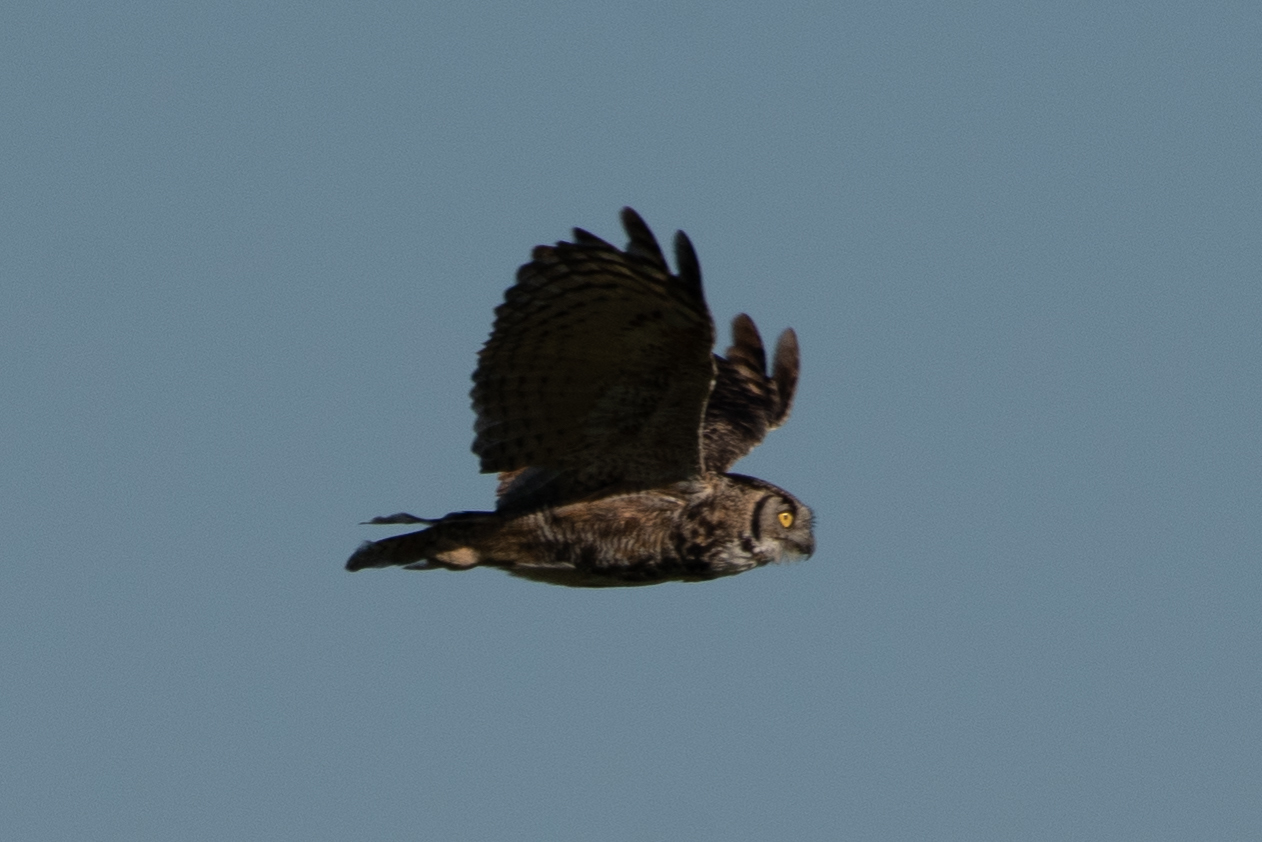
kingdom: Animalia
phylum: Chordata
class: Aves
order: Strigiformes
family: Strigidae
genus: Bubo
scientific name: Bubo virginianus
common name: Great horned owl
